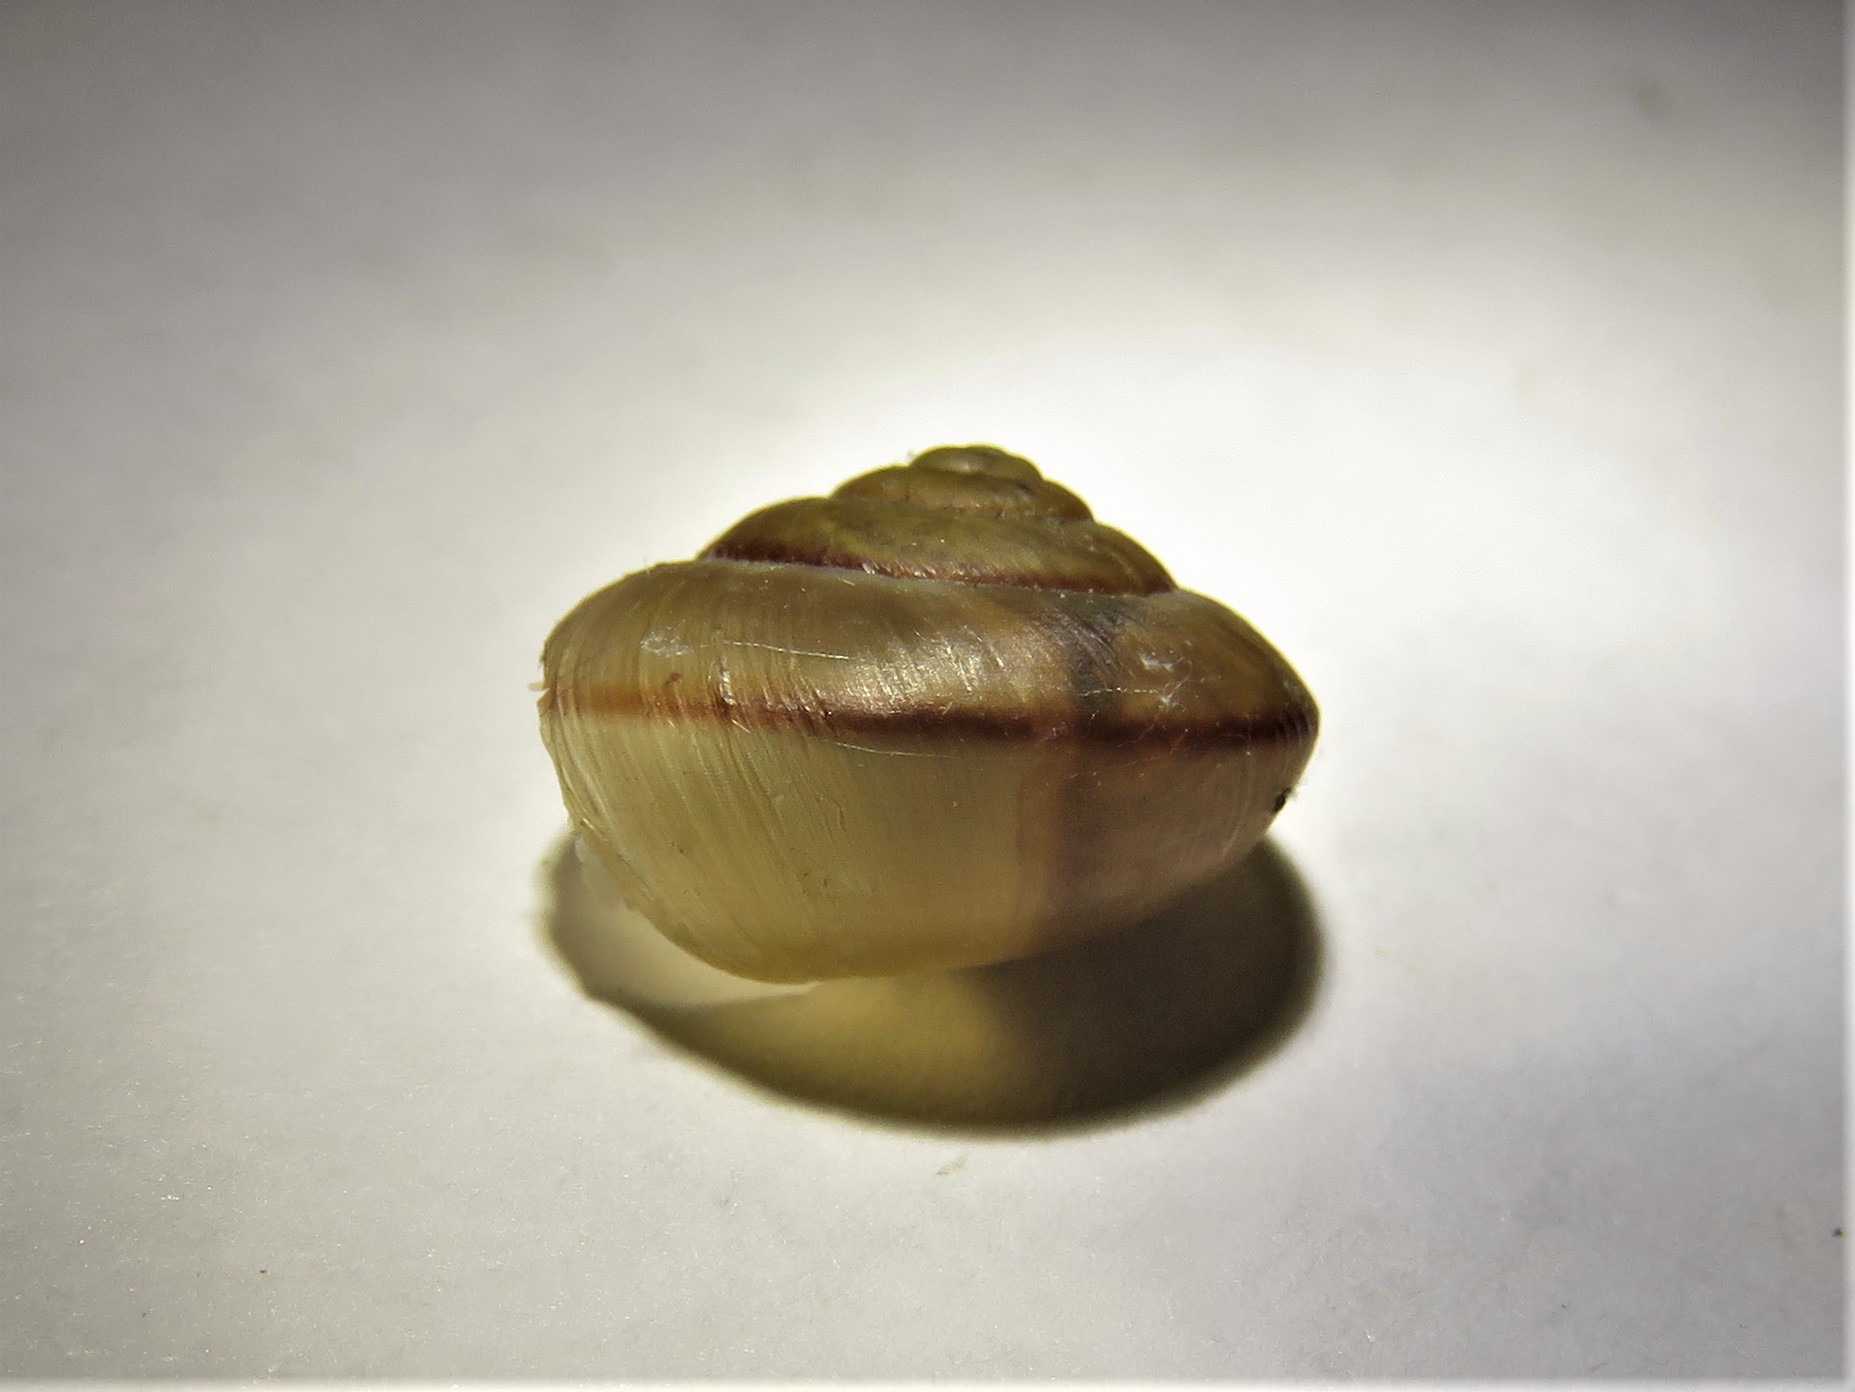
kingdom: Animalia
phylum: Mollusca
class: Gastropoda
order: Stylommatophora
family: Camaenidae
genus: Bradybaena
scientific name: Bradybaena similaris
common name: Asian trampsnail
